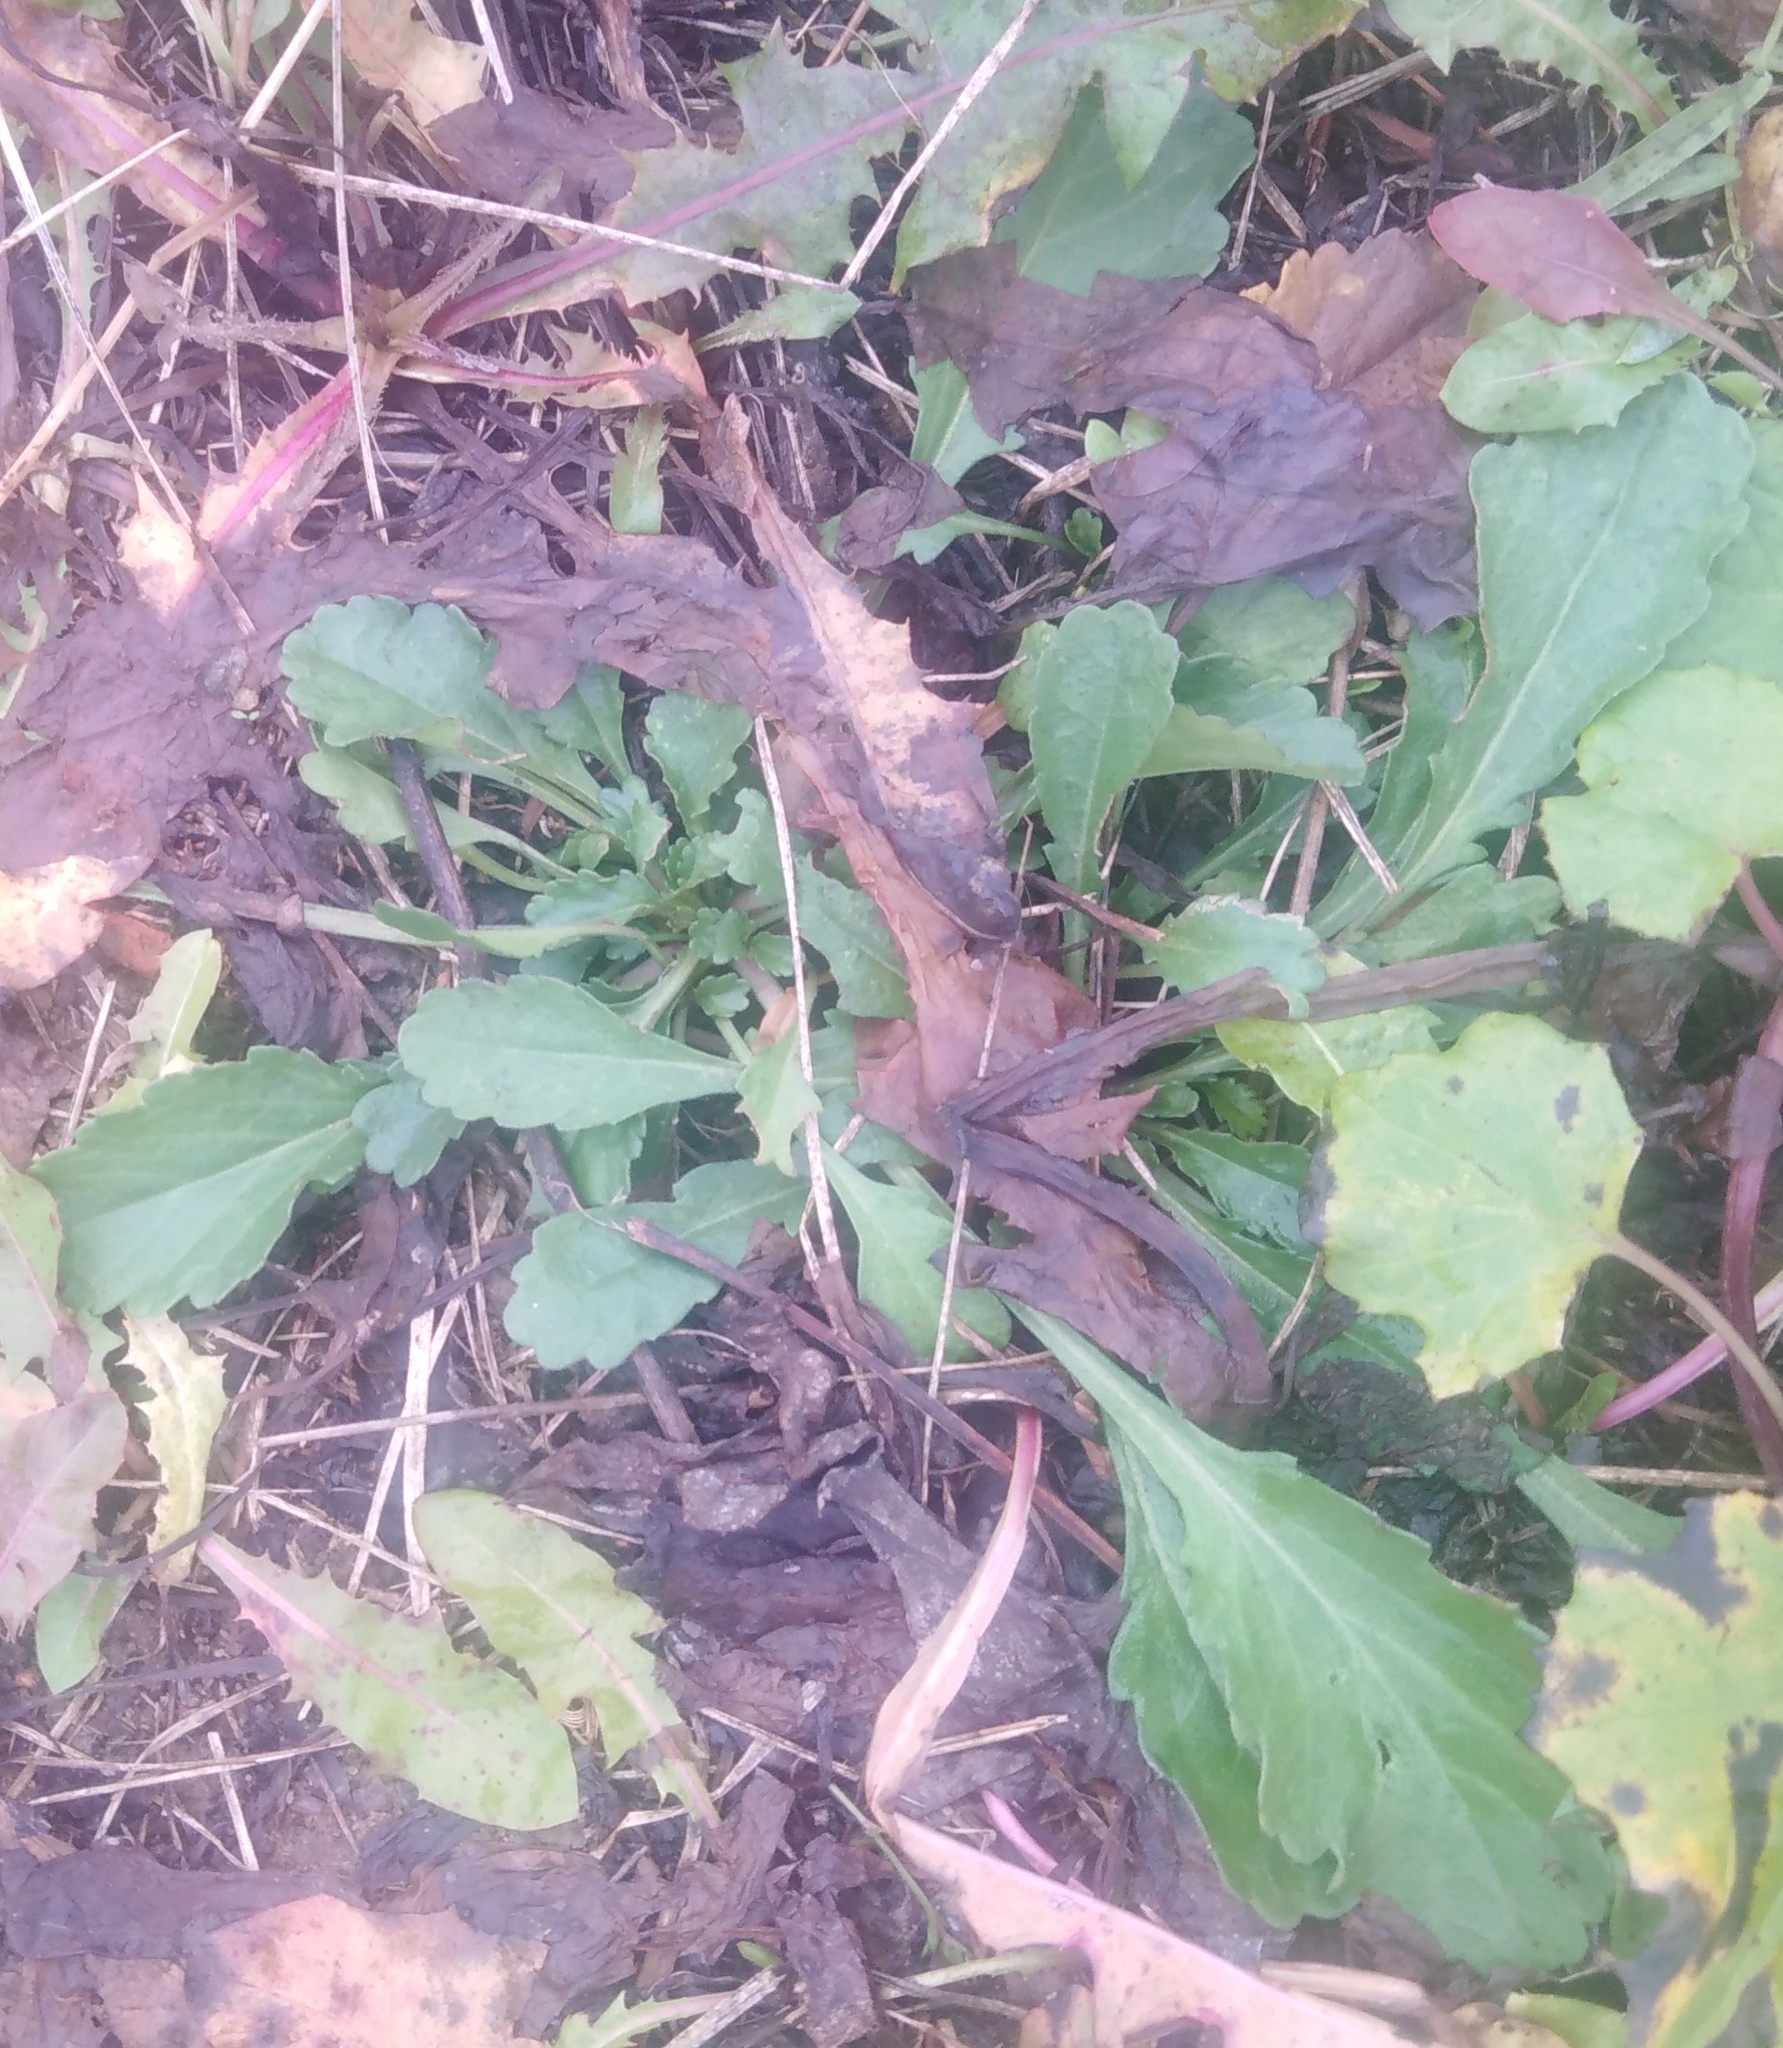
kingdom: Plantae
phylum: Tracheophyta
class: Magnoliopsida
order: Asterales
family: Asteraceae
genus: Leucanthemum
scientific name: Leucanthemum vulgare
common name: Oxeye daisy
